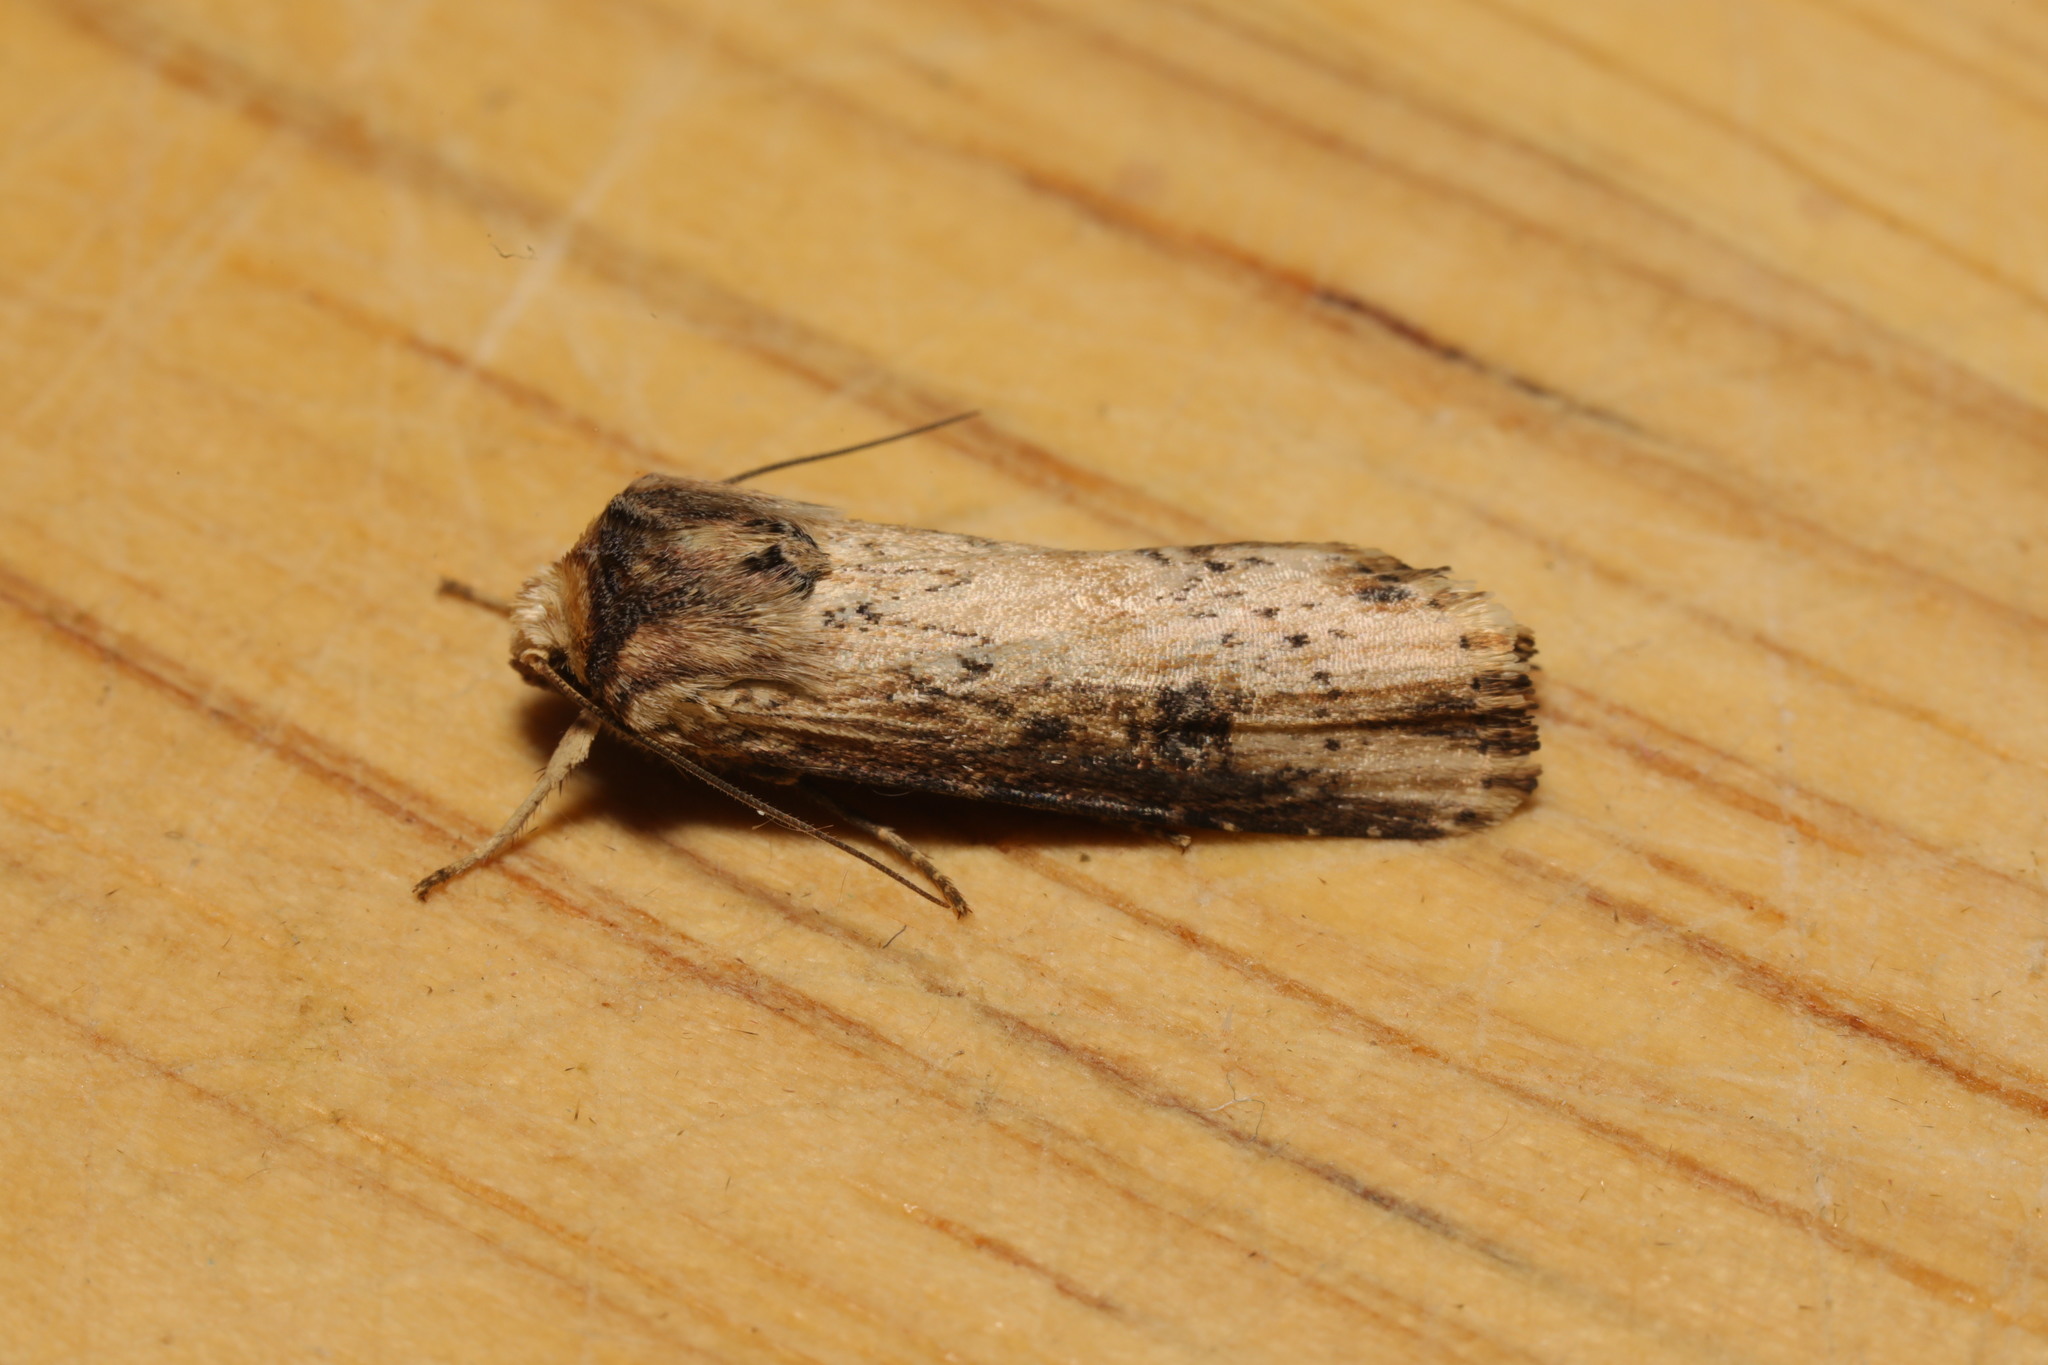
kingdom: Animalia
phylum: Arthropoda
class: Insecta
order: Lepidoptera
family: Noctuidae
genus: Axylia
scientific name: Axylia putris
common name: Flame
